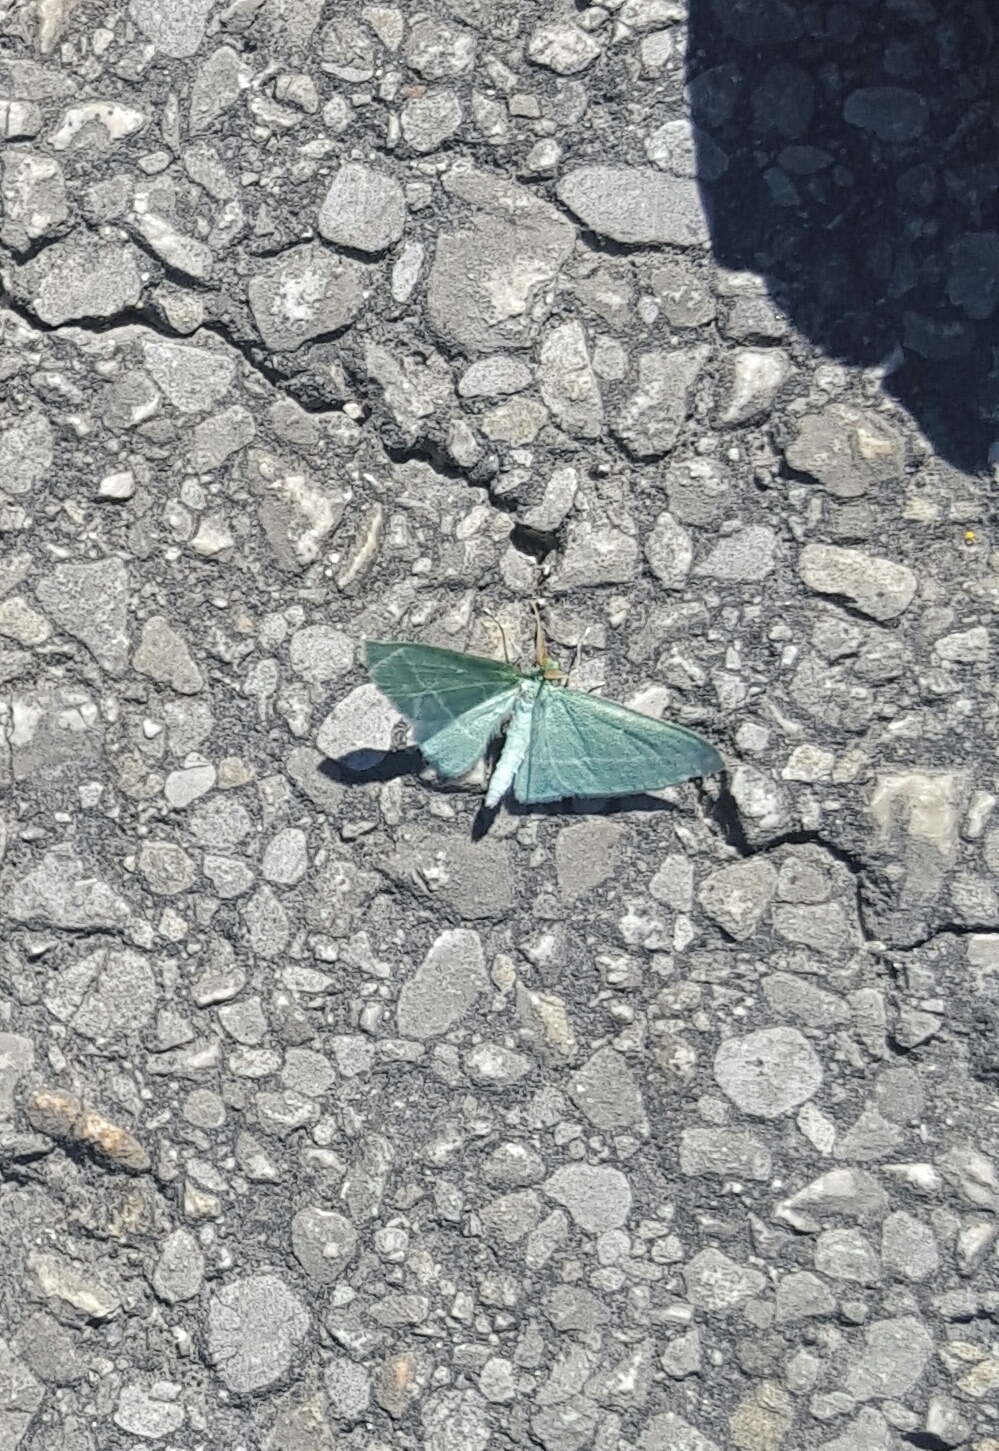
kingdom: Animalia
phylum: Arthropoda
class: Insecta
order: Lepidoptera
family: Geometridae
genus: Dyspteris
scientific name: Dyspteris abortivaria
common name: Bad-wing
